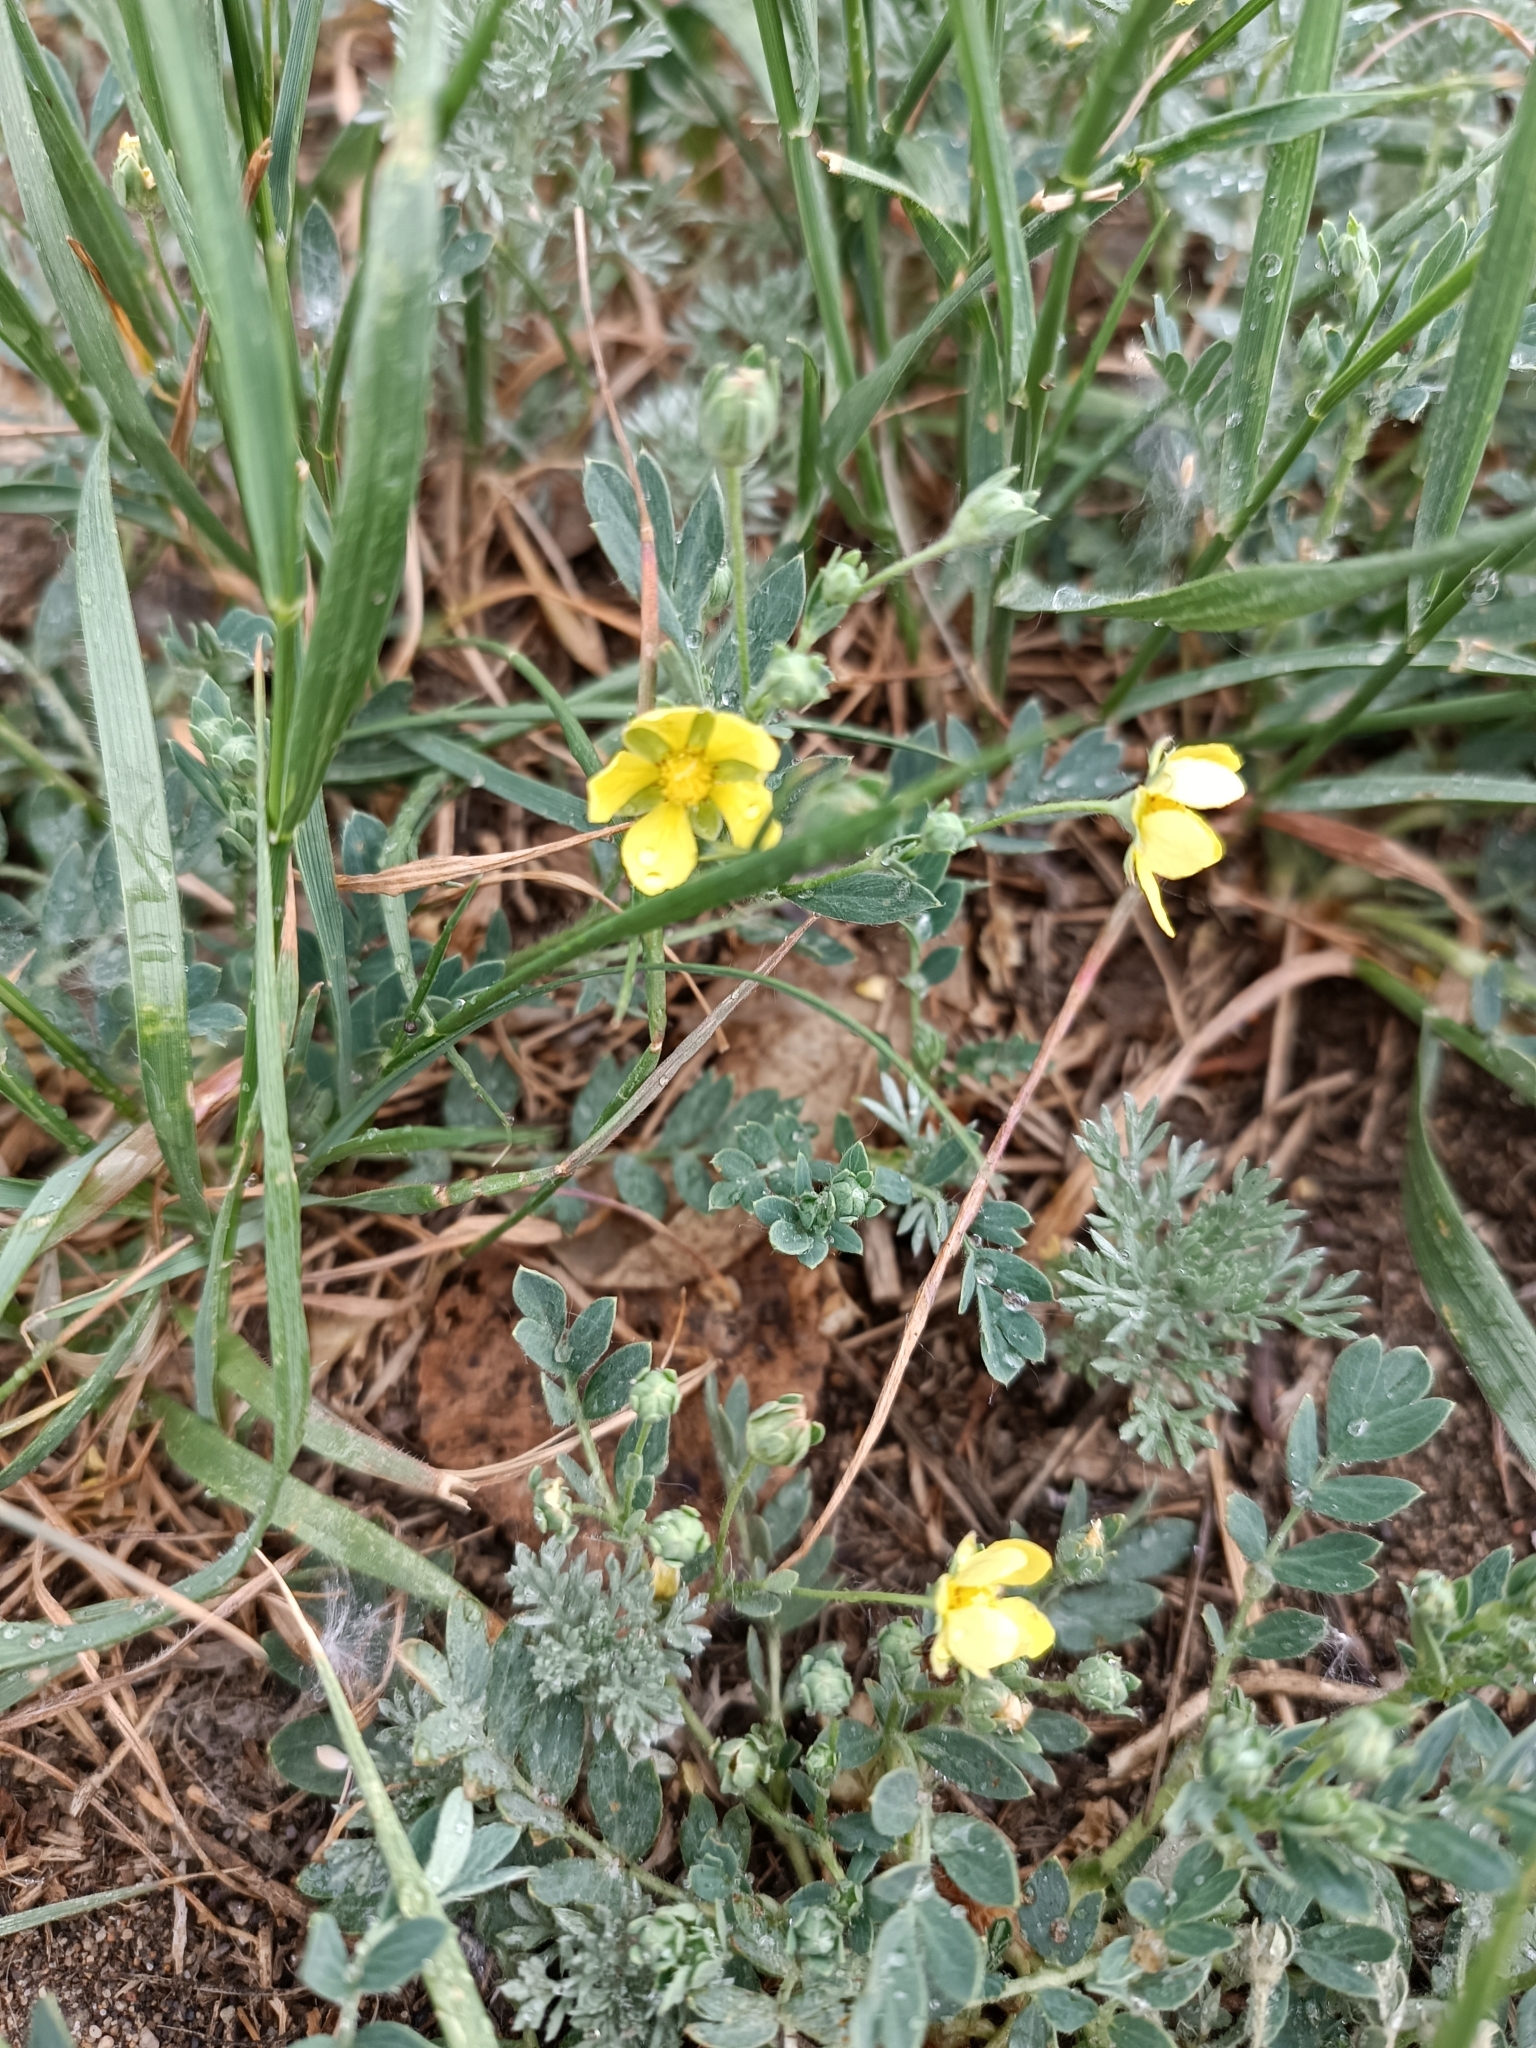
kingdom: Plantae
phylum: Tracheophyta
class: Magnoliopsida
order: Rosales
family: Rosaceae
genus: Sibbaldianthe
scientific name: Sibbaldianthe bifurca
